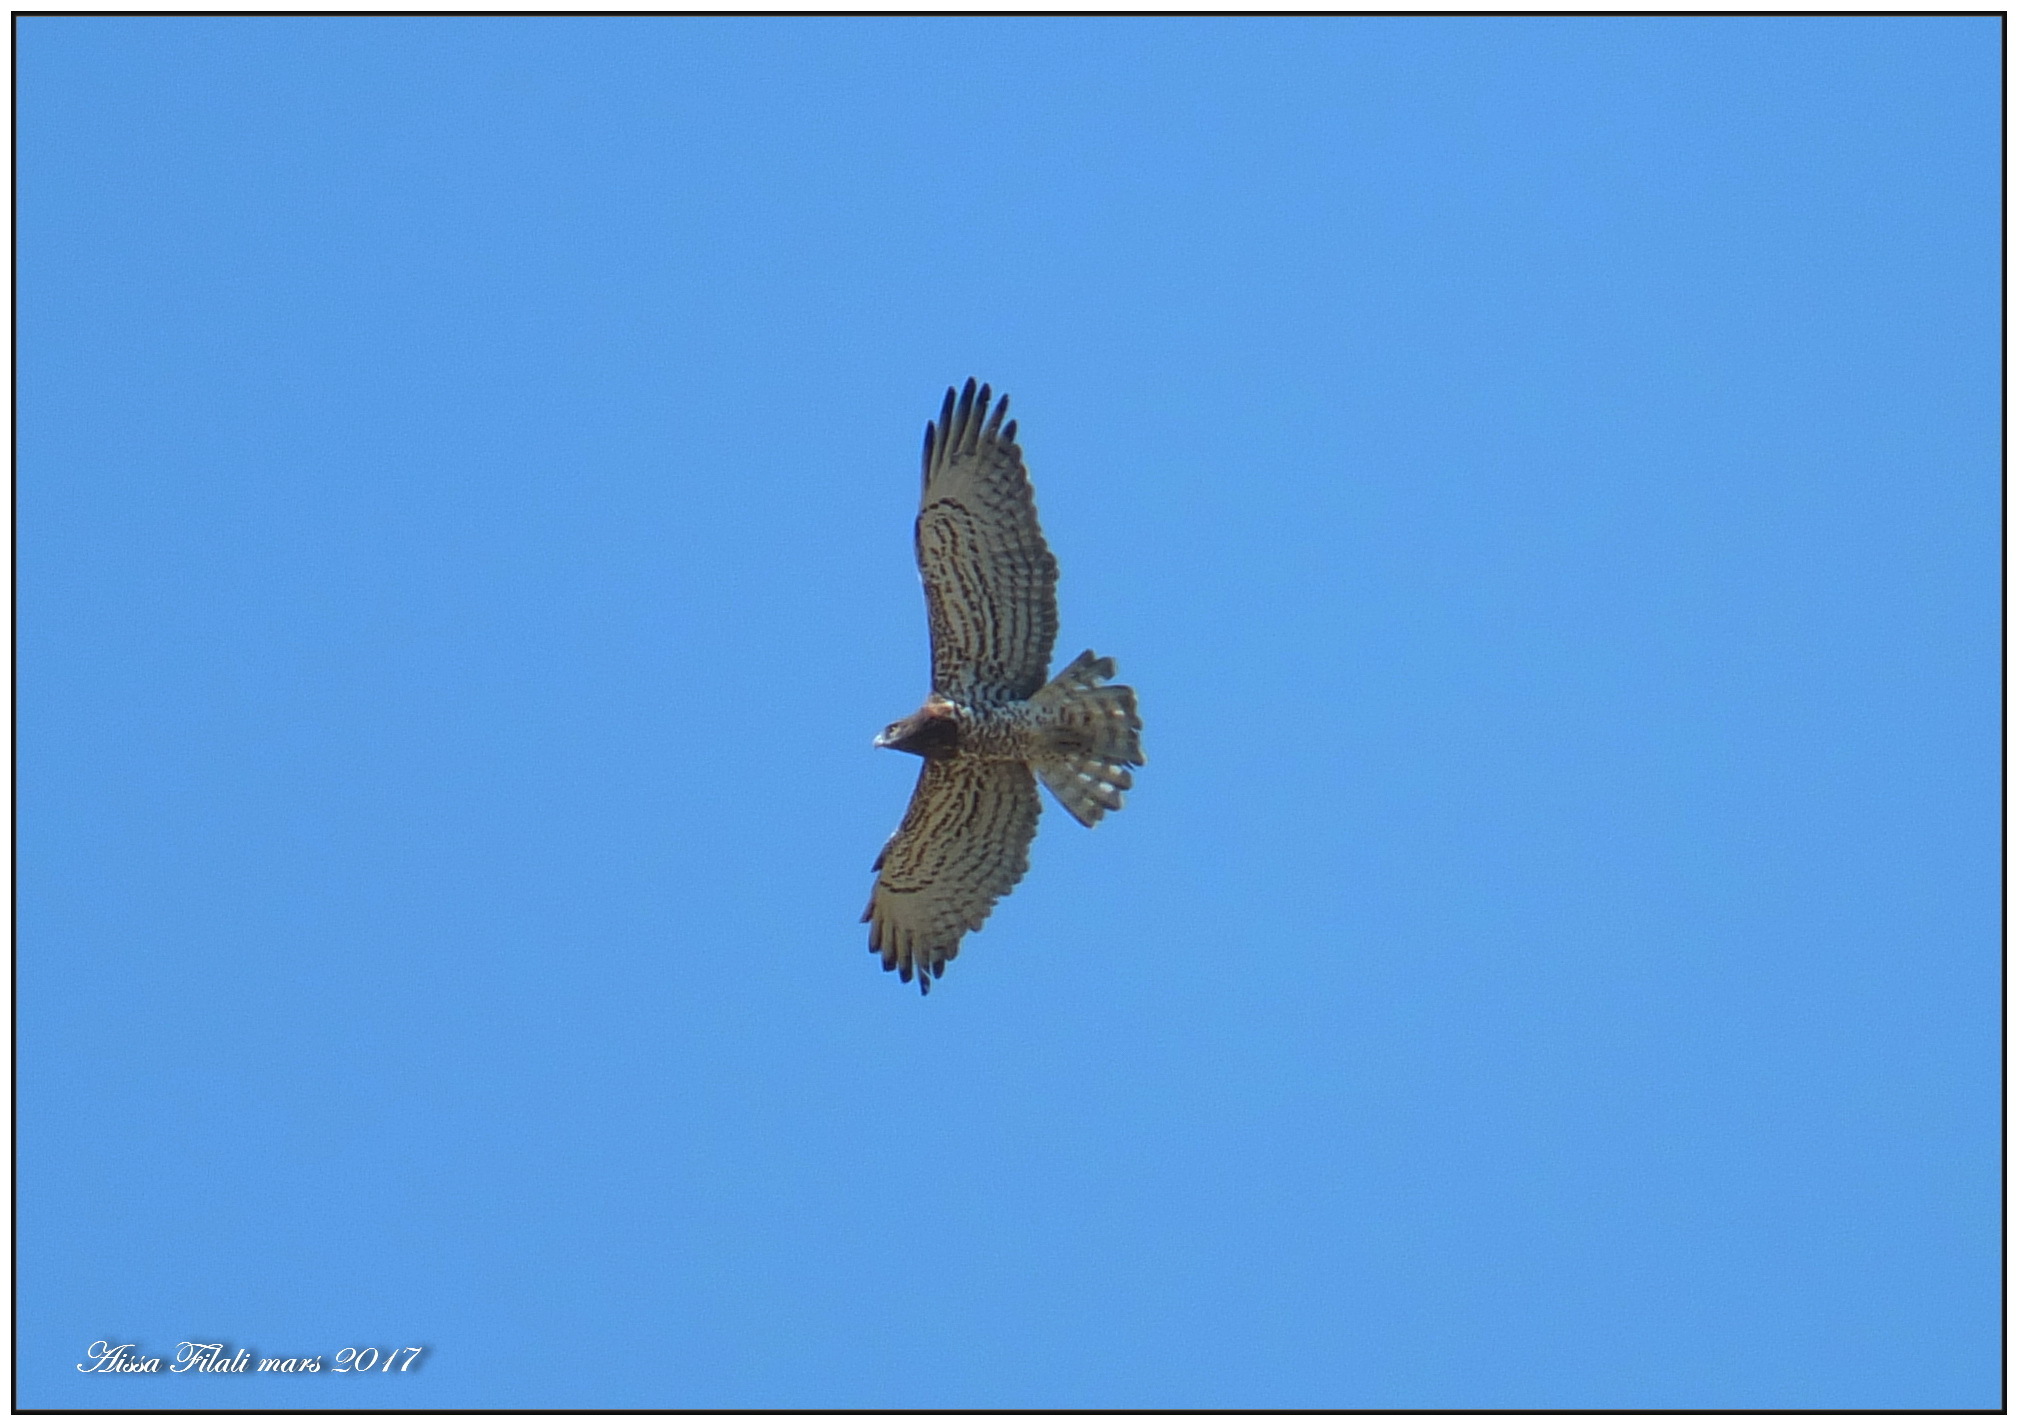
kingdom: Animalia
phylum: Chordata
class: Aves
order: Accipitriformes
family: Accipitridae
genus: Circaetus
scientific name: Circaetus gallicus
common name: Short-toed snake eagle
